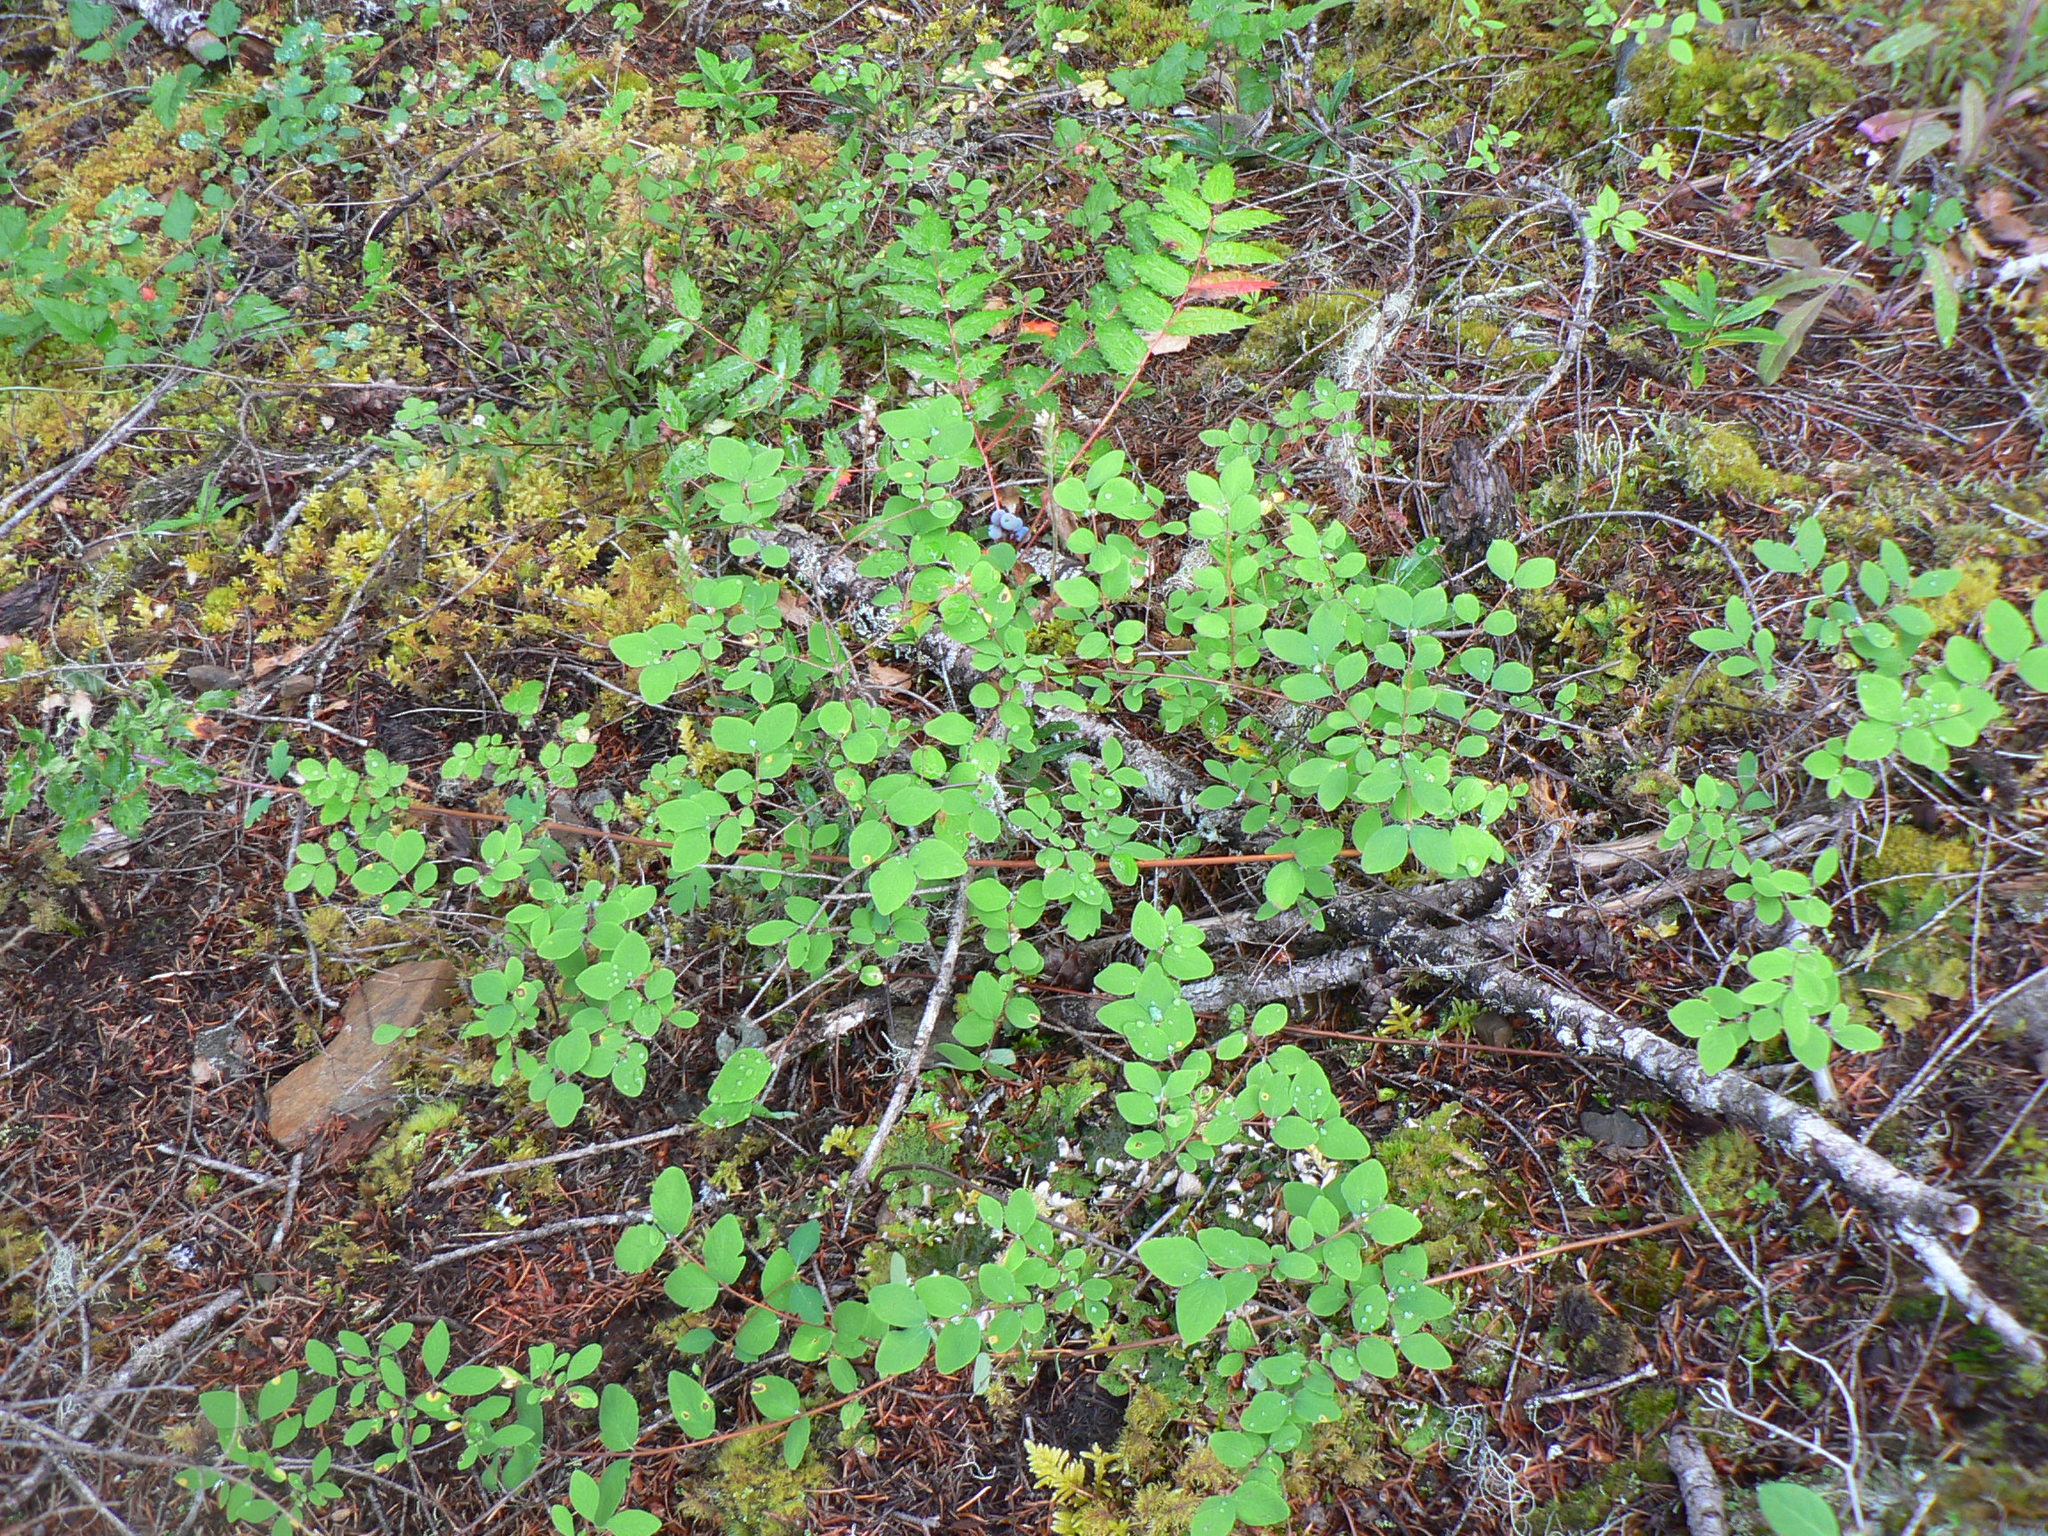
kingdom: Plantae
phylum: Tracheophyta
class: Magnoliopsida
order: Dipsacales
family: Caprifoliaceae
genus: Symphoricarpos
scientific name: Symphoricarpos mollis
